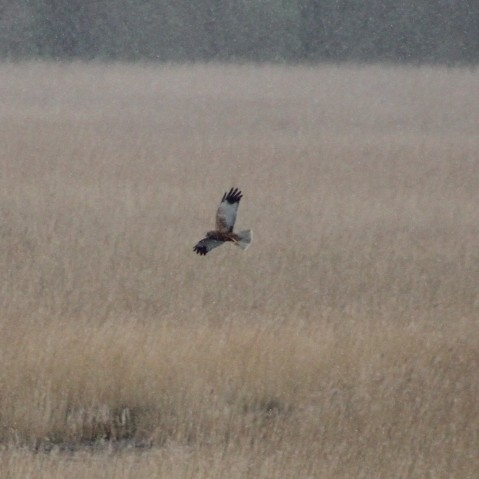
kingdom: Animalia
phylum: Chordata
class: Aves
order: Accipitriformes
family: Accipitridae
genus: Circus
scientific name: Circus aeruginosus
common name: Western marsh harrier
